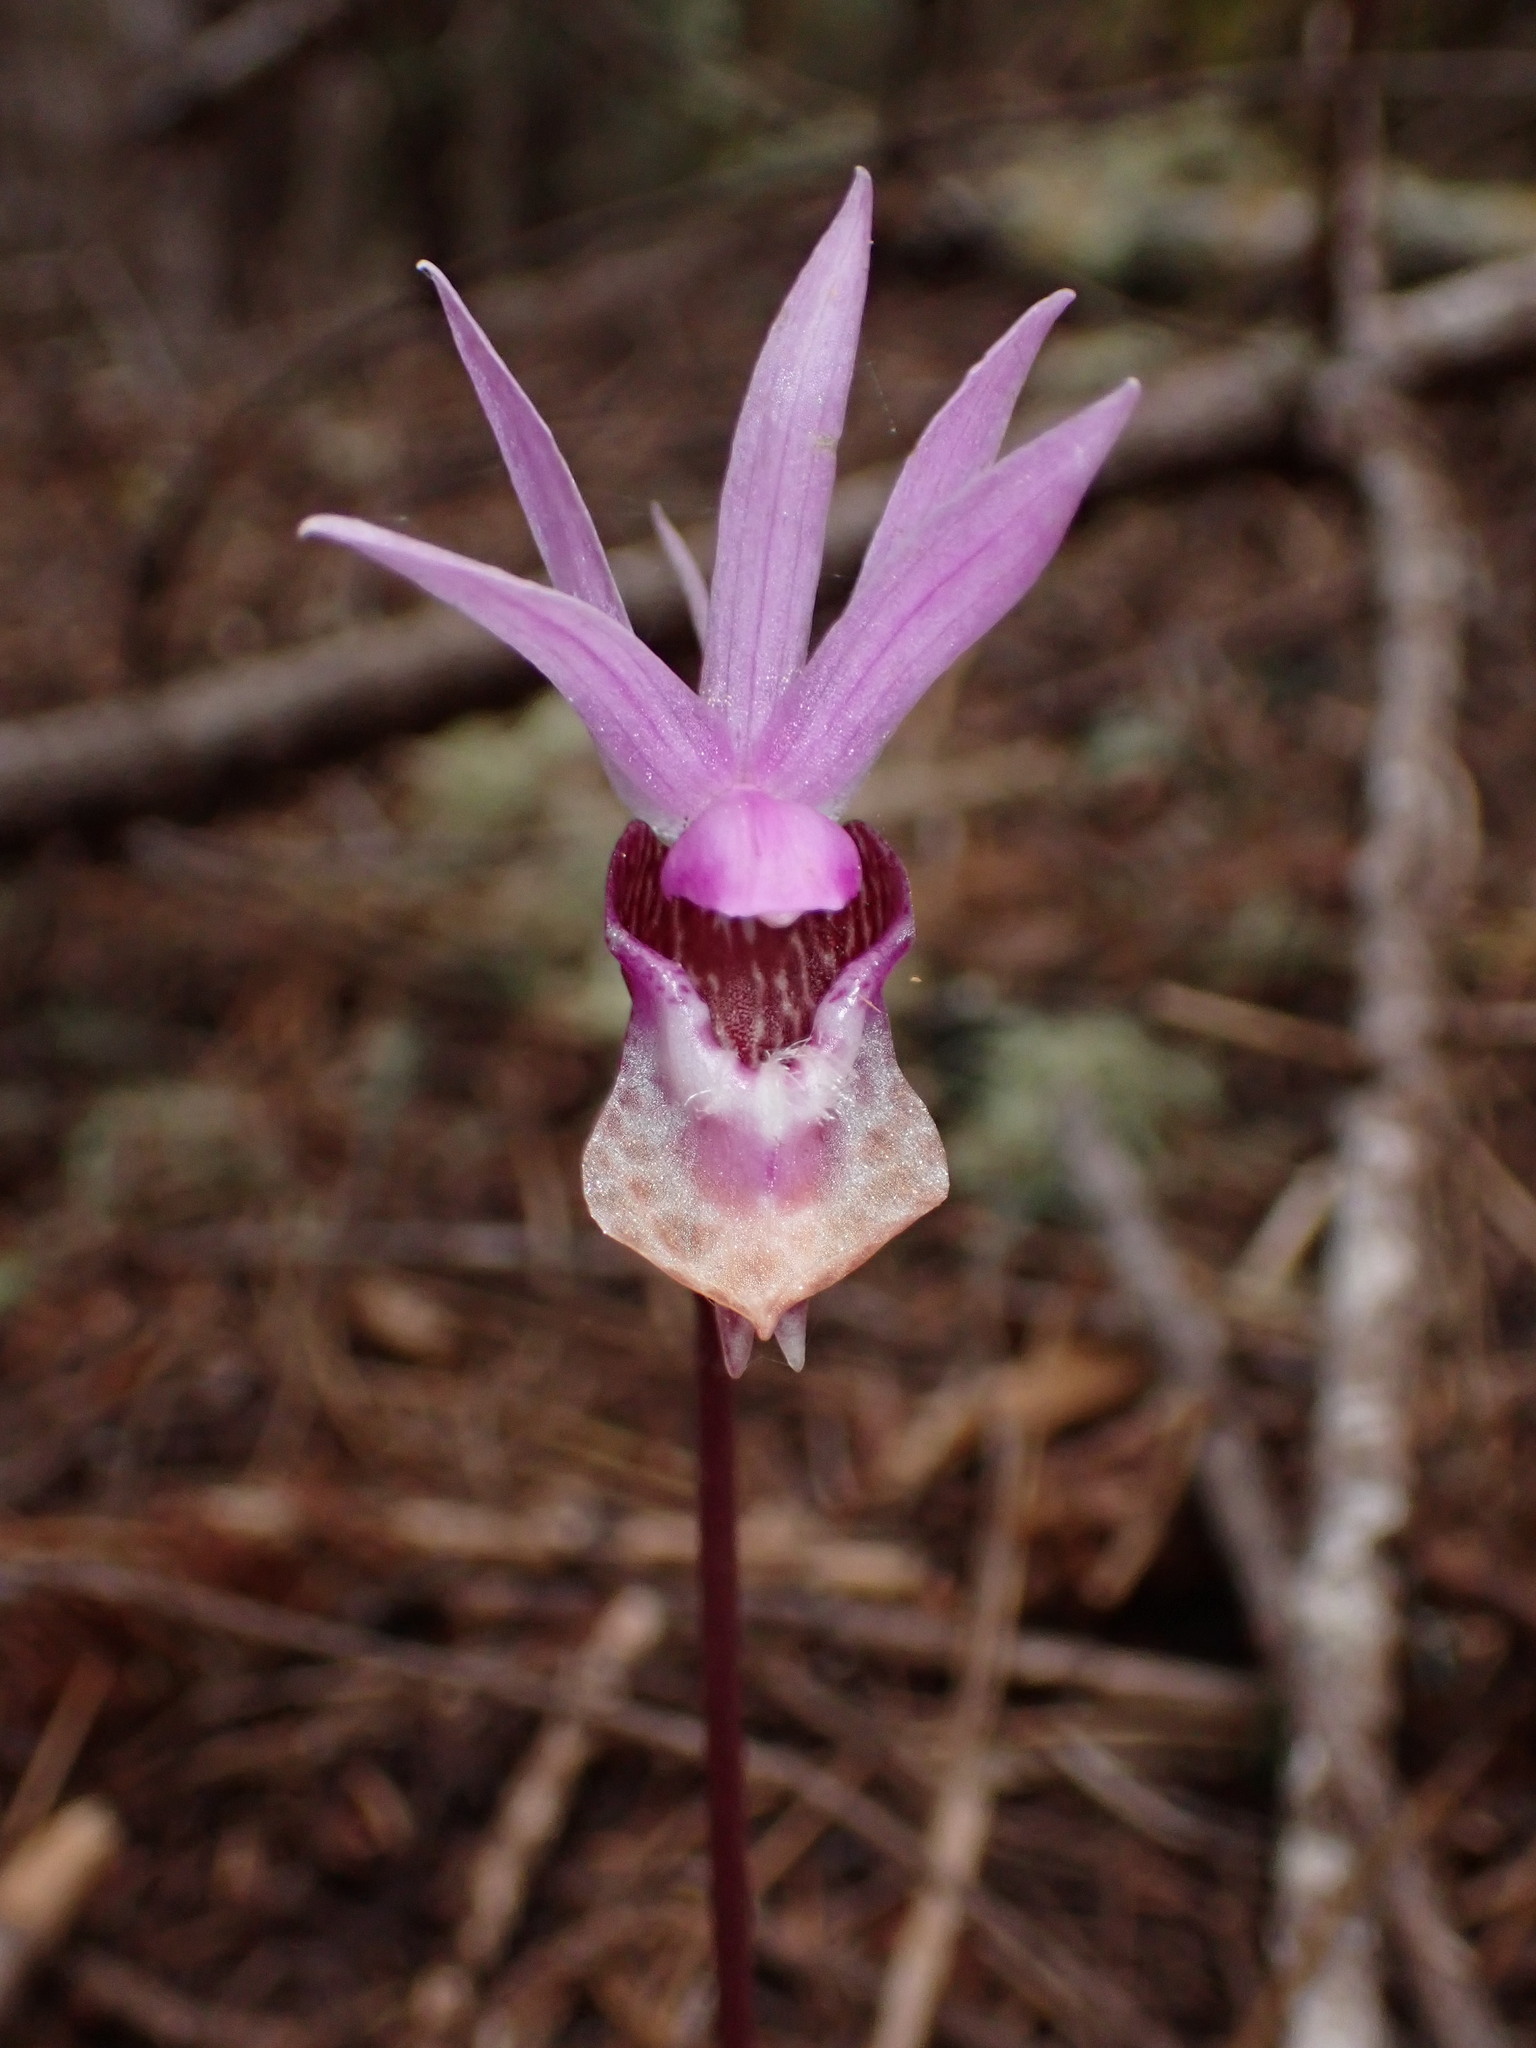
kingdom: Plantae
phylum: Tracheophyta
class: Liliopsida
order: Asparagales
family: Orchidaceae
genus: Calypso
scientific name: Calypso bulbosa
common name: Calypso
